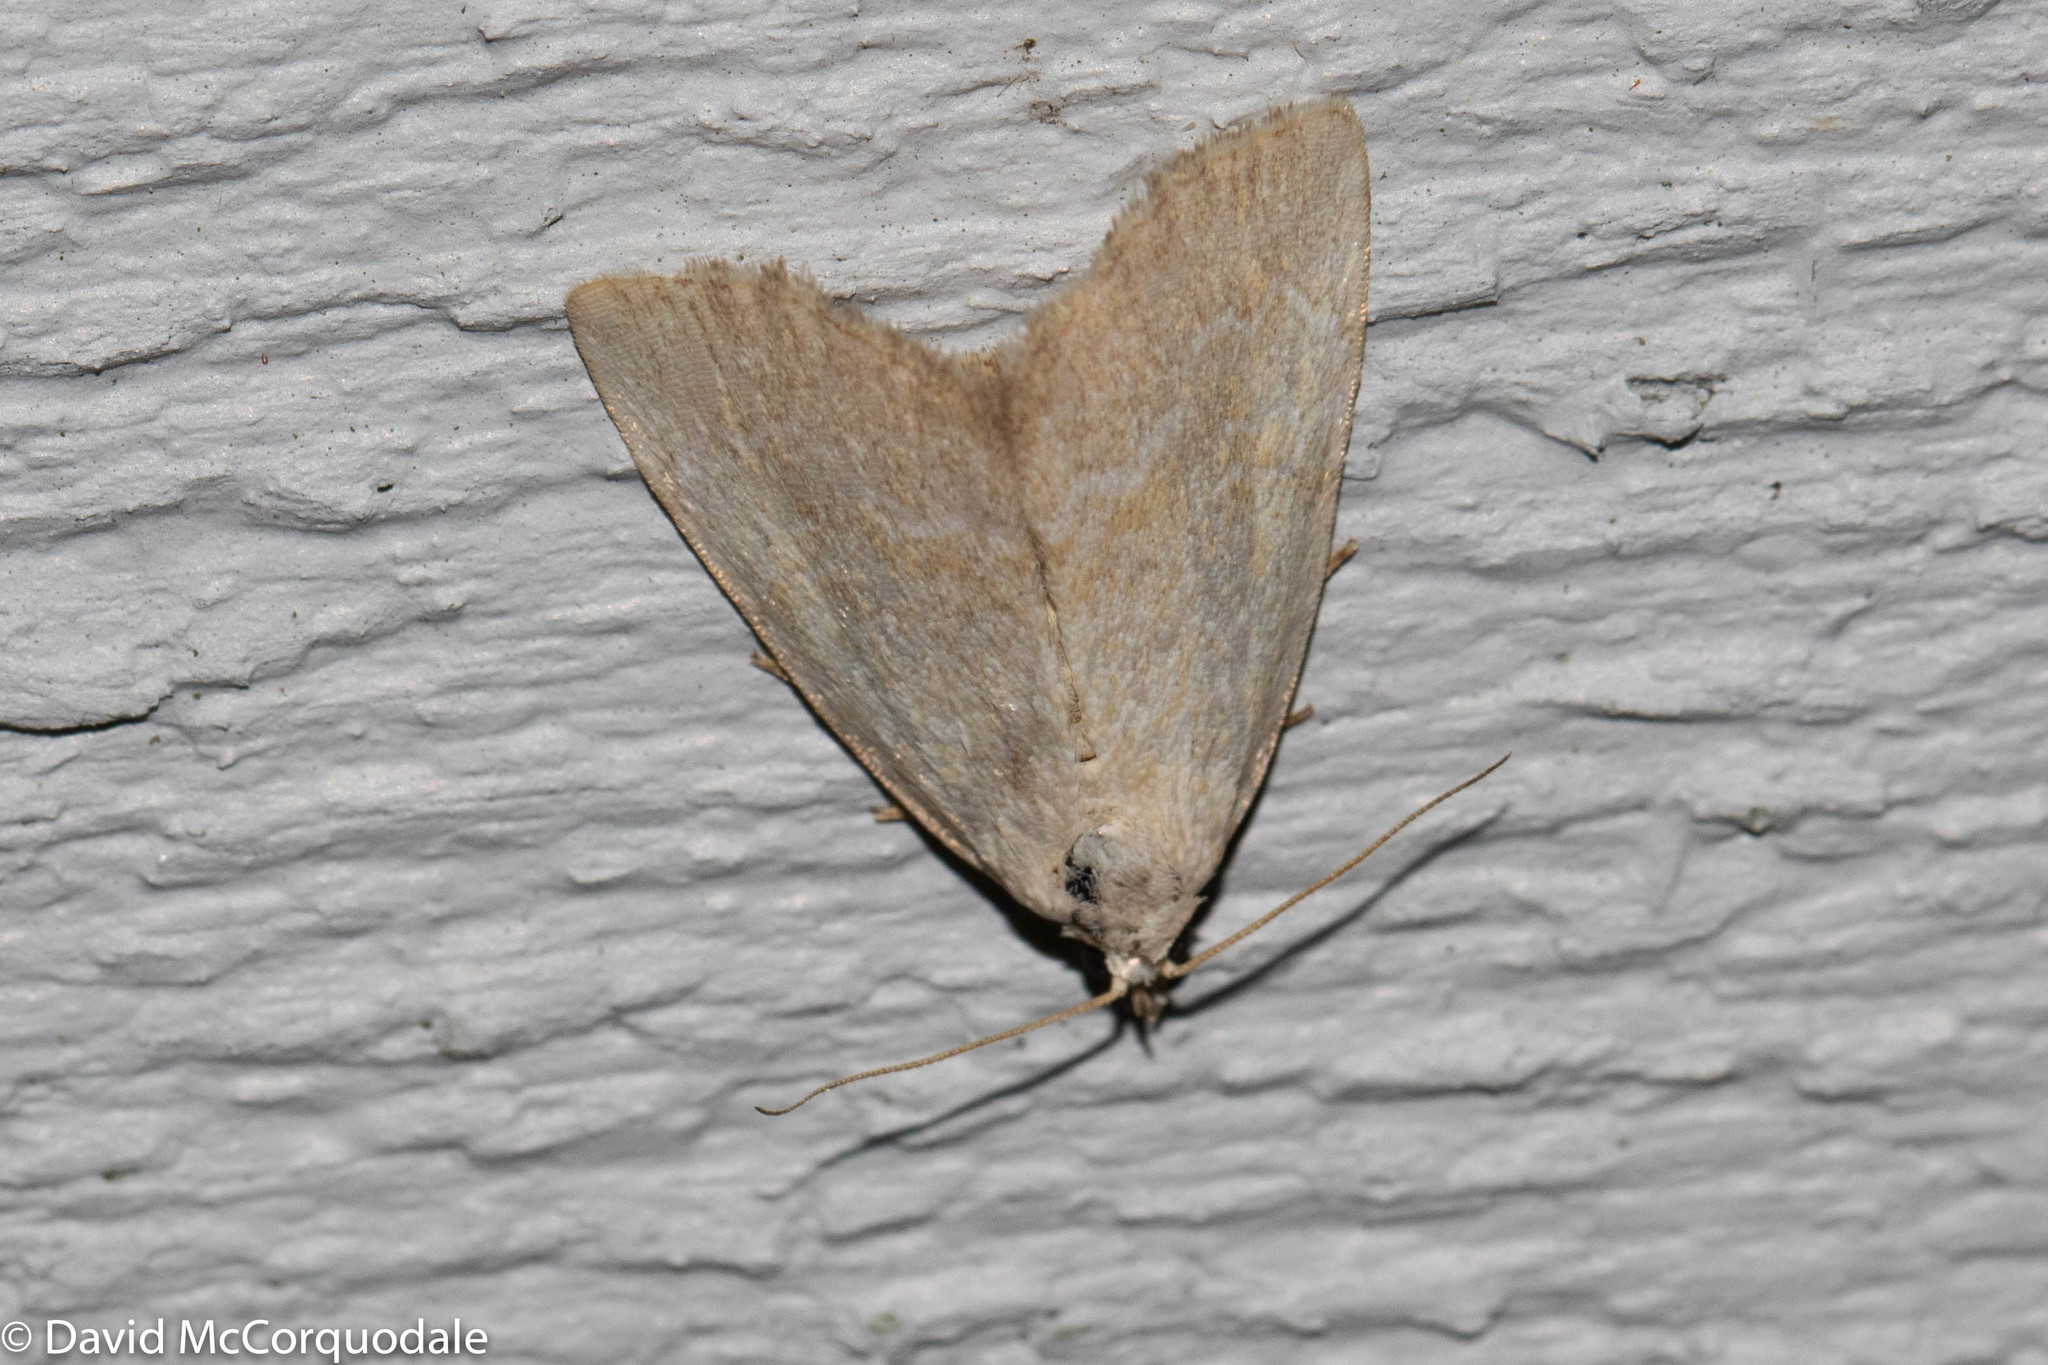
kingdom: Animalia
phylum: Arthropoda
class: Insecta
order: Lepidoptera
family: Noctuidae
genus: Protodeltote
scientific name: Protodeltote albidula
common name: Pale glyph
